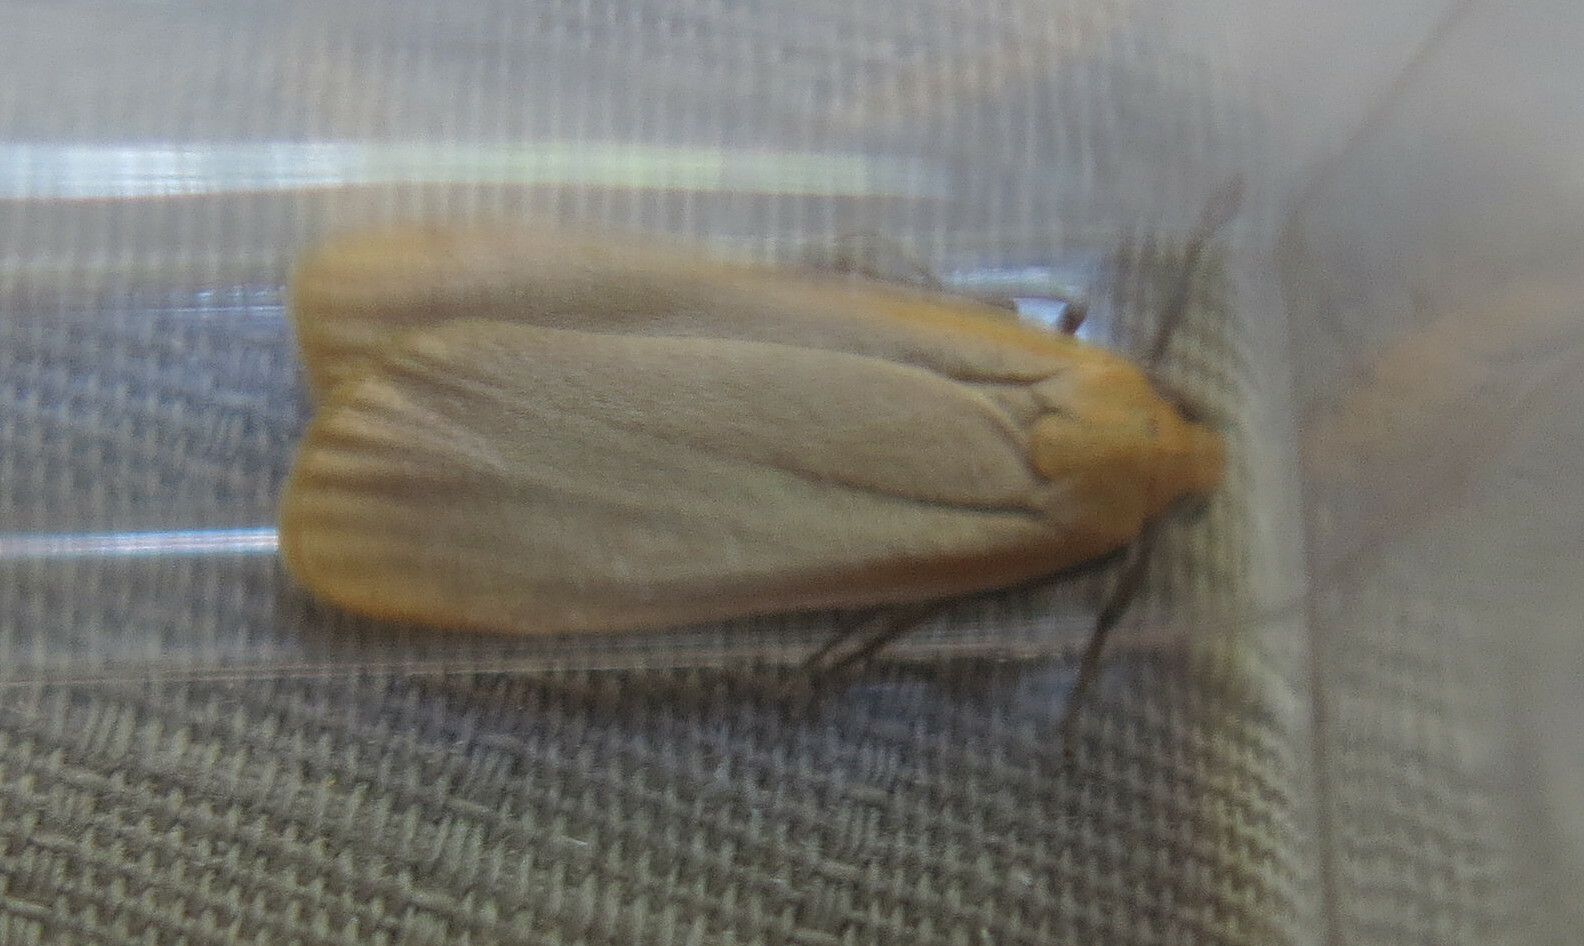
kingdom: Animalia
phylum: Arthropoda
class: Insecta
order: Lepidoptera
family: Erebidae
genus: Katha
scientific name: Katha depressa
